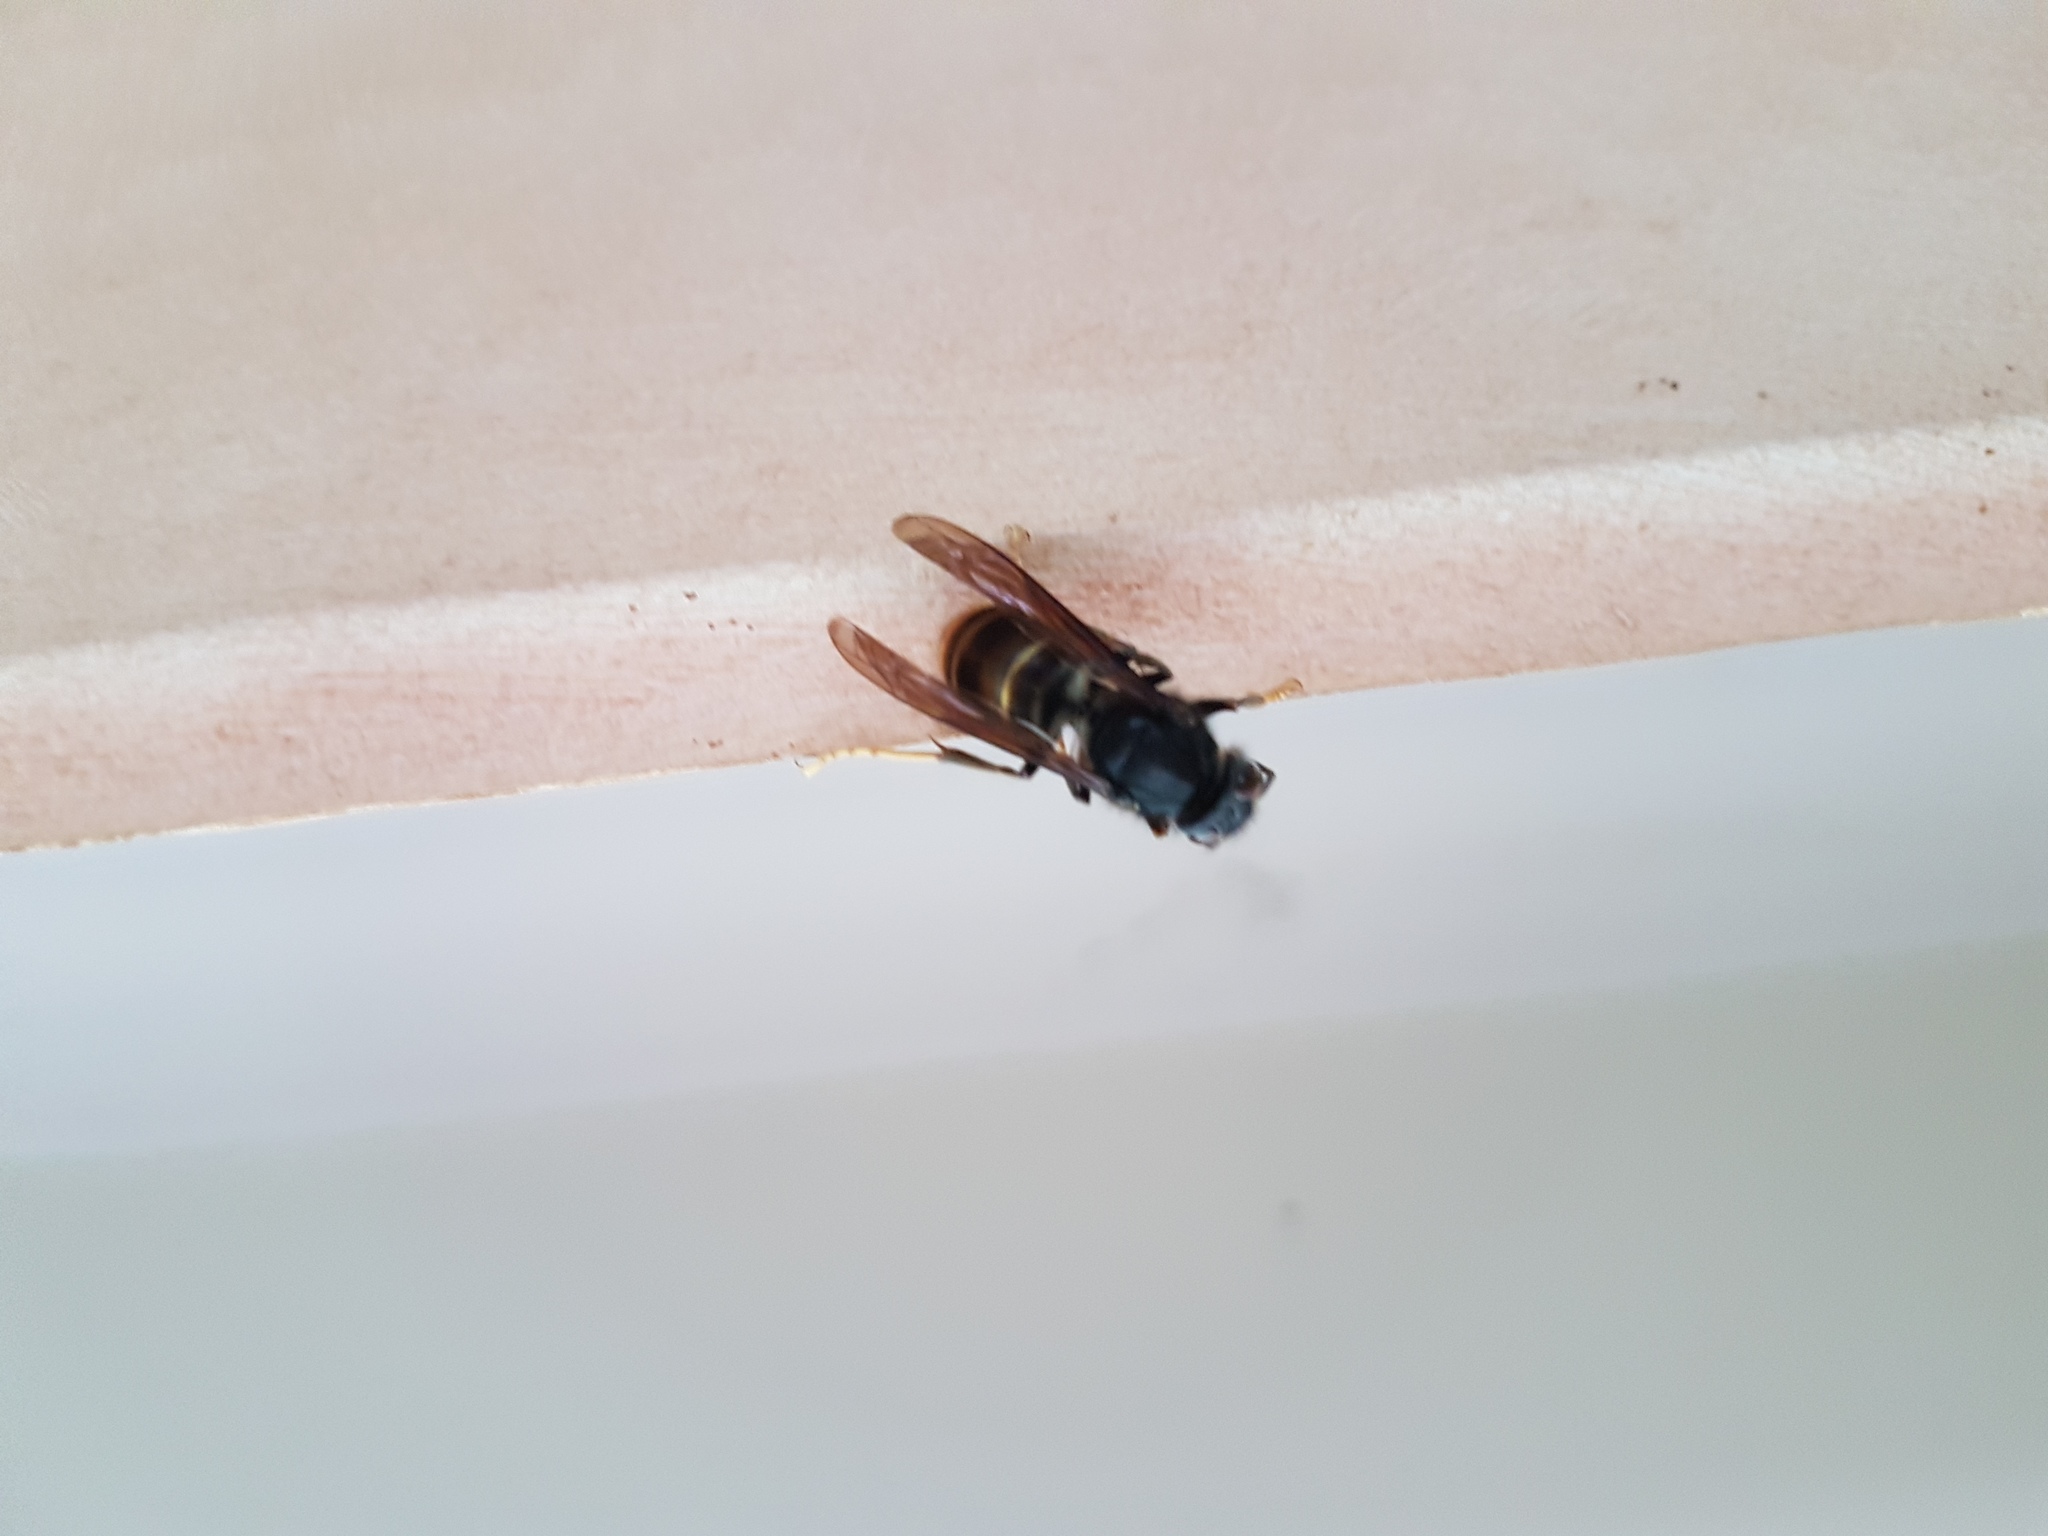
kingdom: Animalia
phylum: Arthropoda
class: Insecta
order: Hymenoptera
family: Vespidae
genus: Vespa
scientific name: Vespa velutina
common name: Asian hornet
